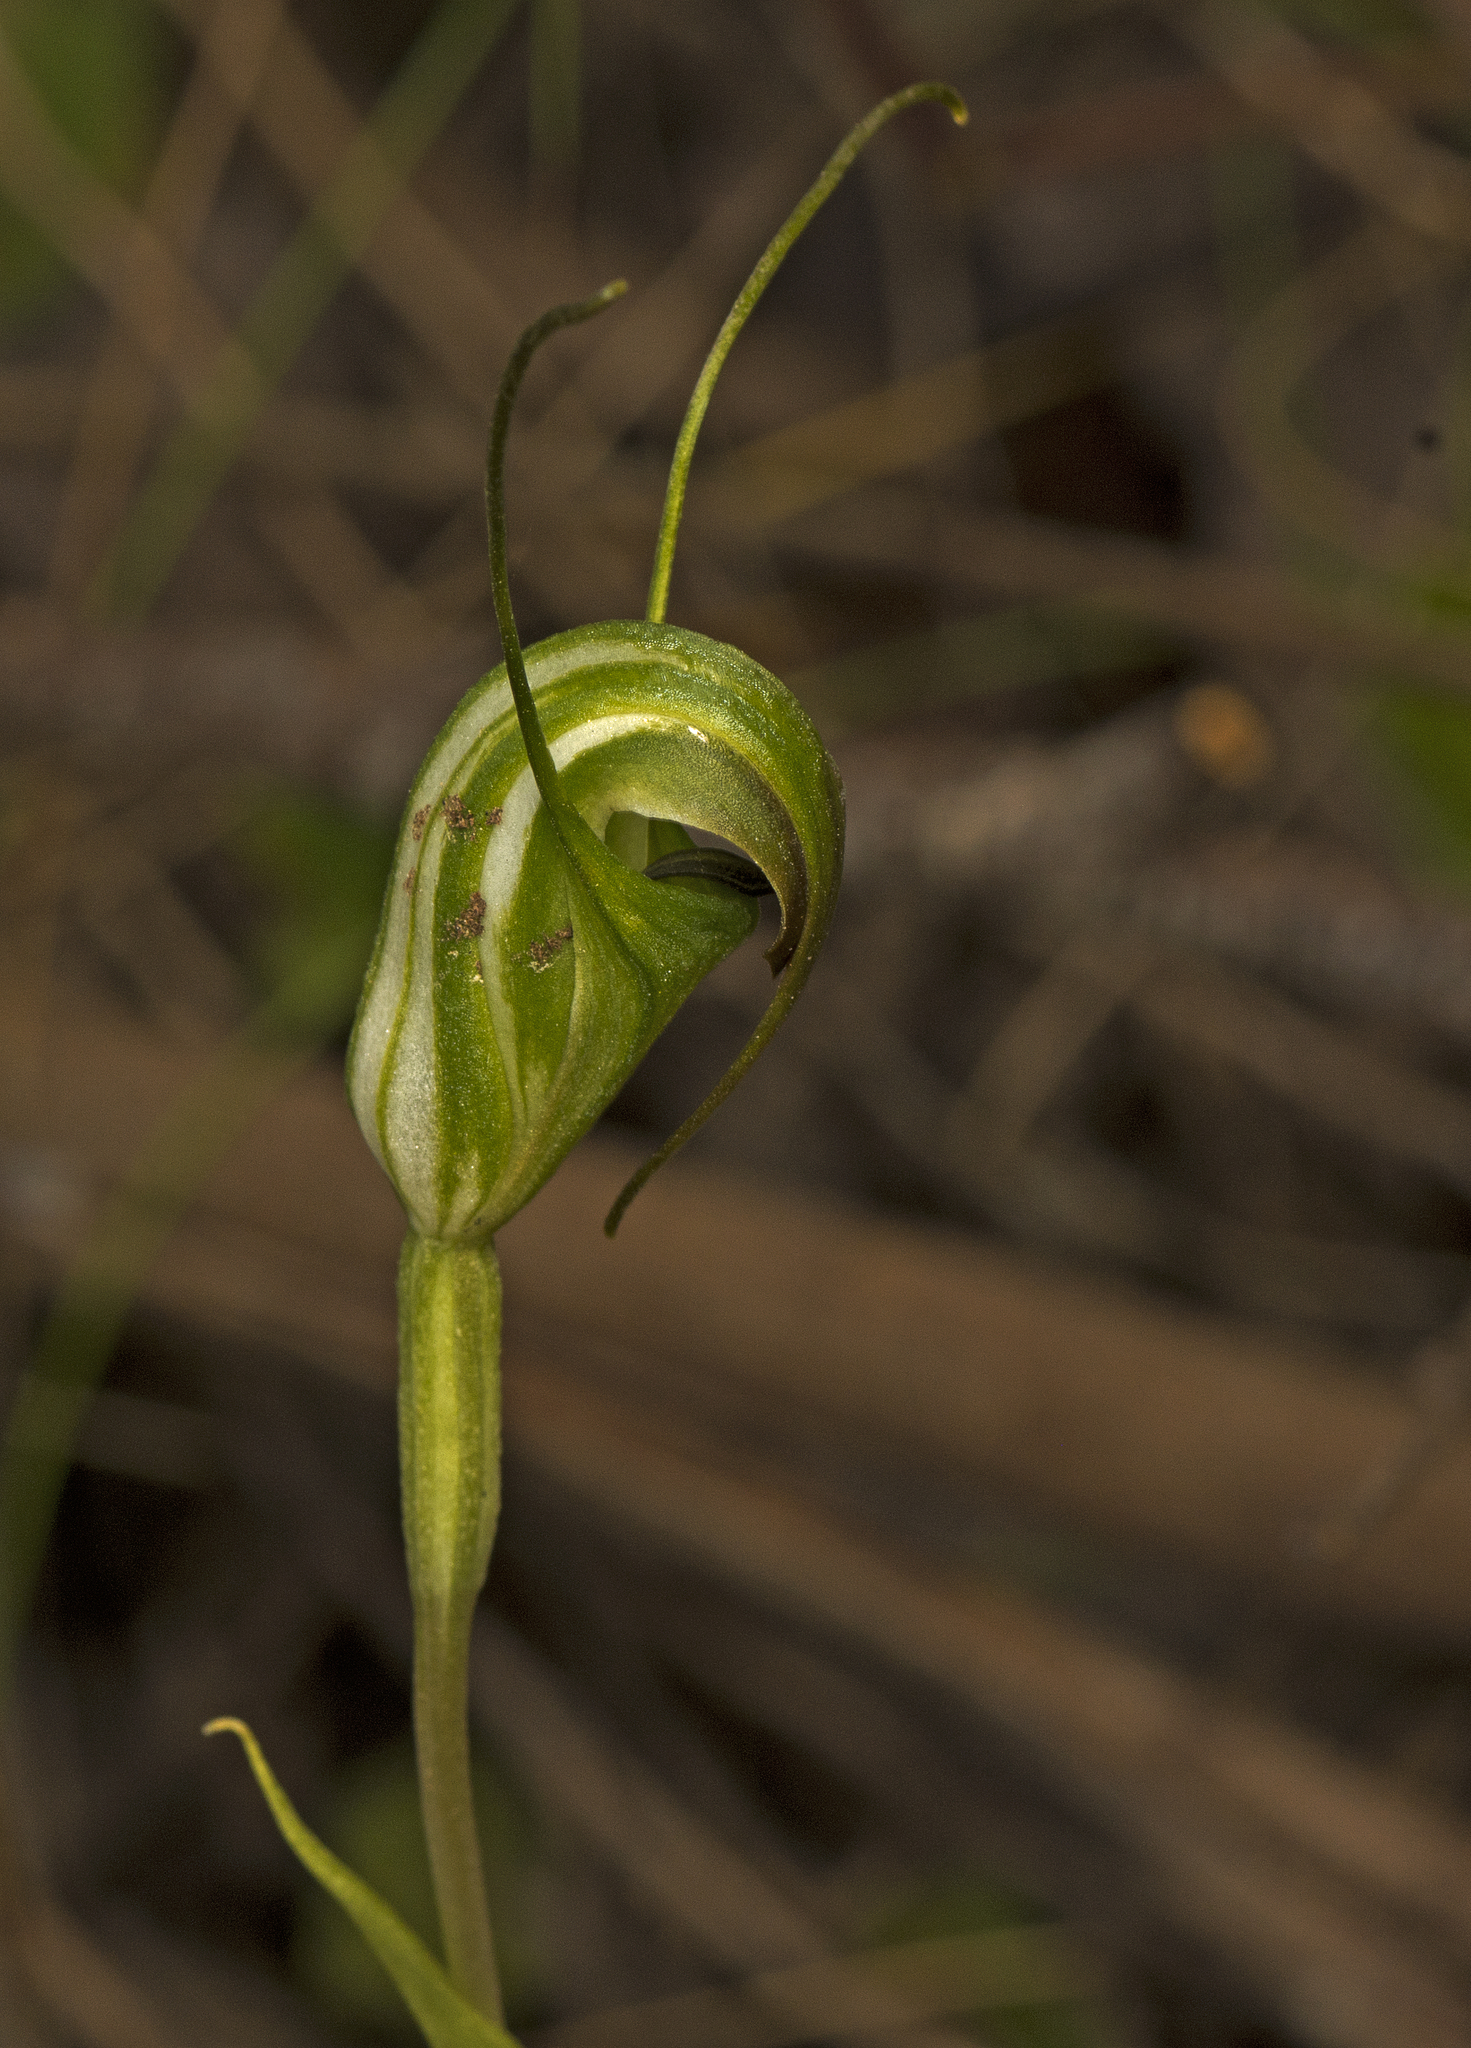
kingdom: Plantae
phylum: Tracheophyta
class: Liliopsida
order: Asparagales
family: Orchidaceae
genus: Pterostylis
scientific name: Pterostylis decurva
